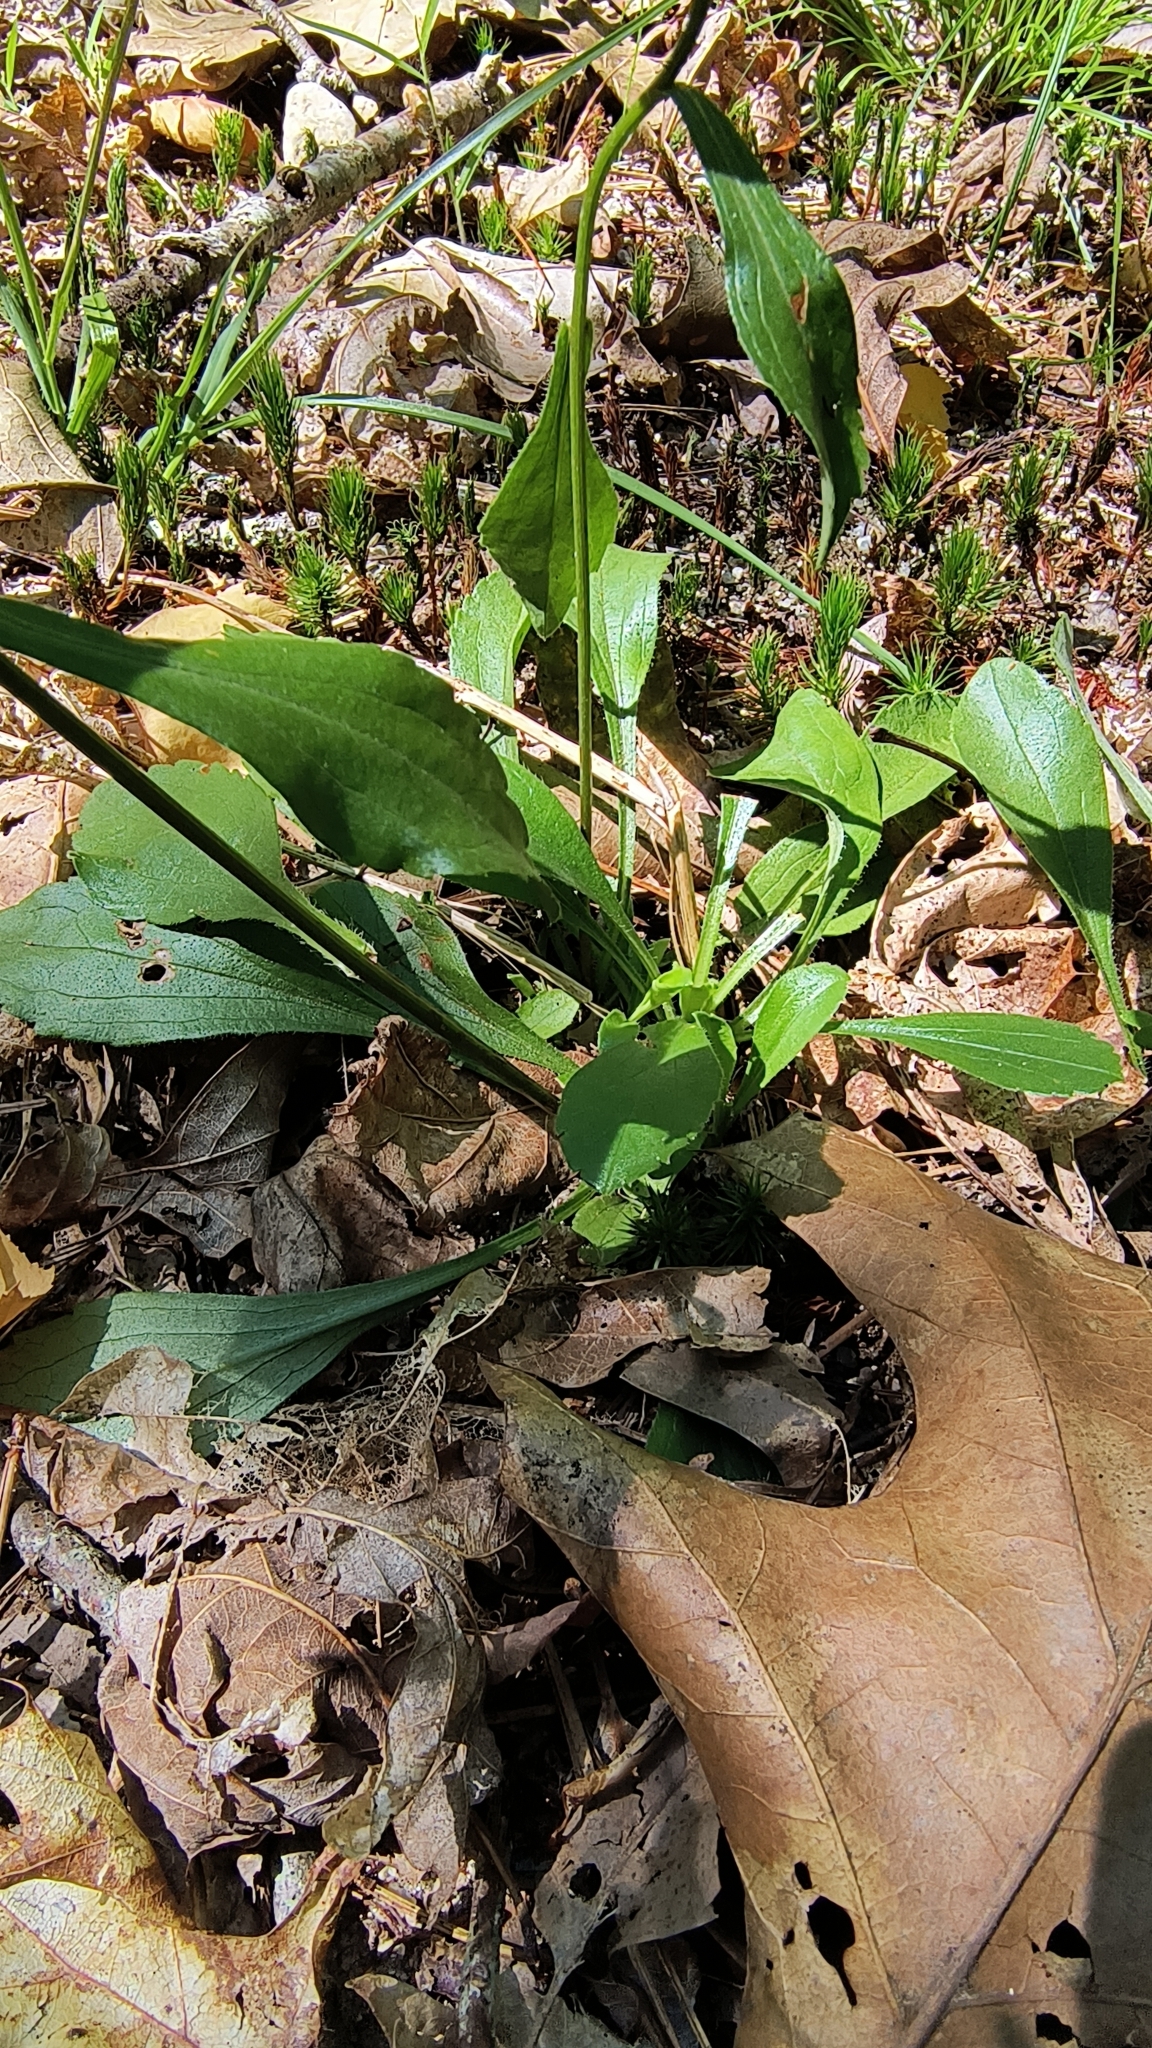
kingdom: Plantae
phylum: Tracheophyta
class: Magnoliopsida
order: Asterales
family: Asteraceae
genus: Sericocarpus
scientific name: Sericocarpus asteroides
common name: Toothed white-top aster
